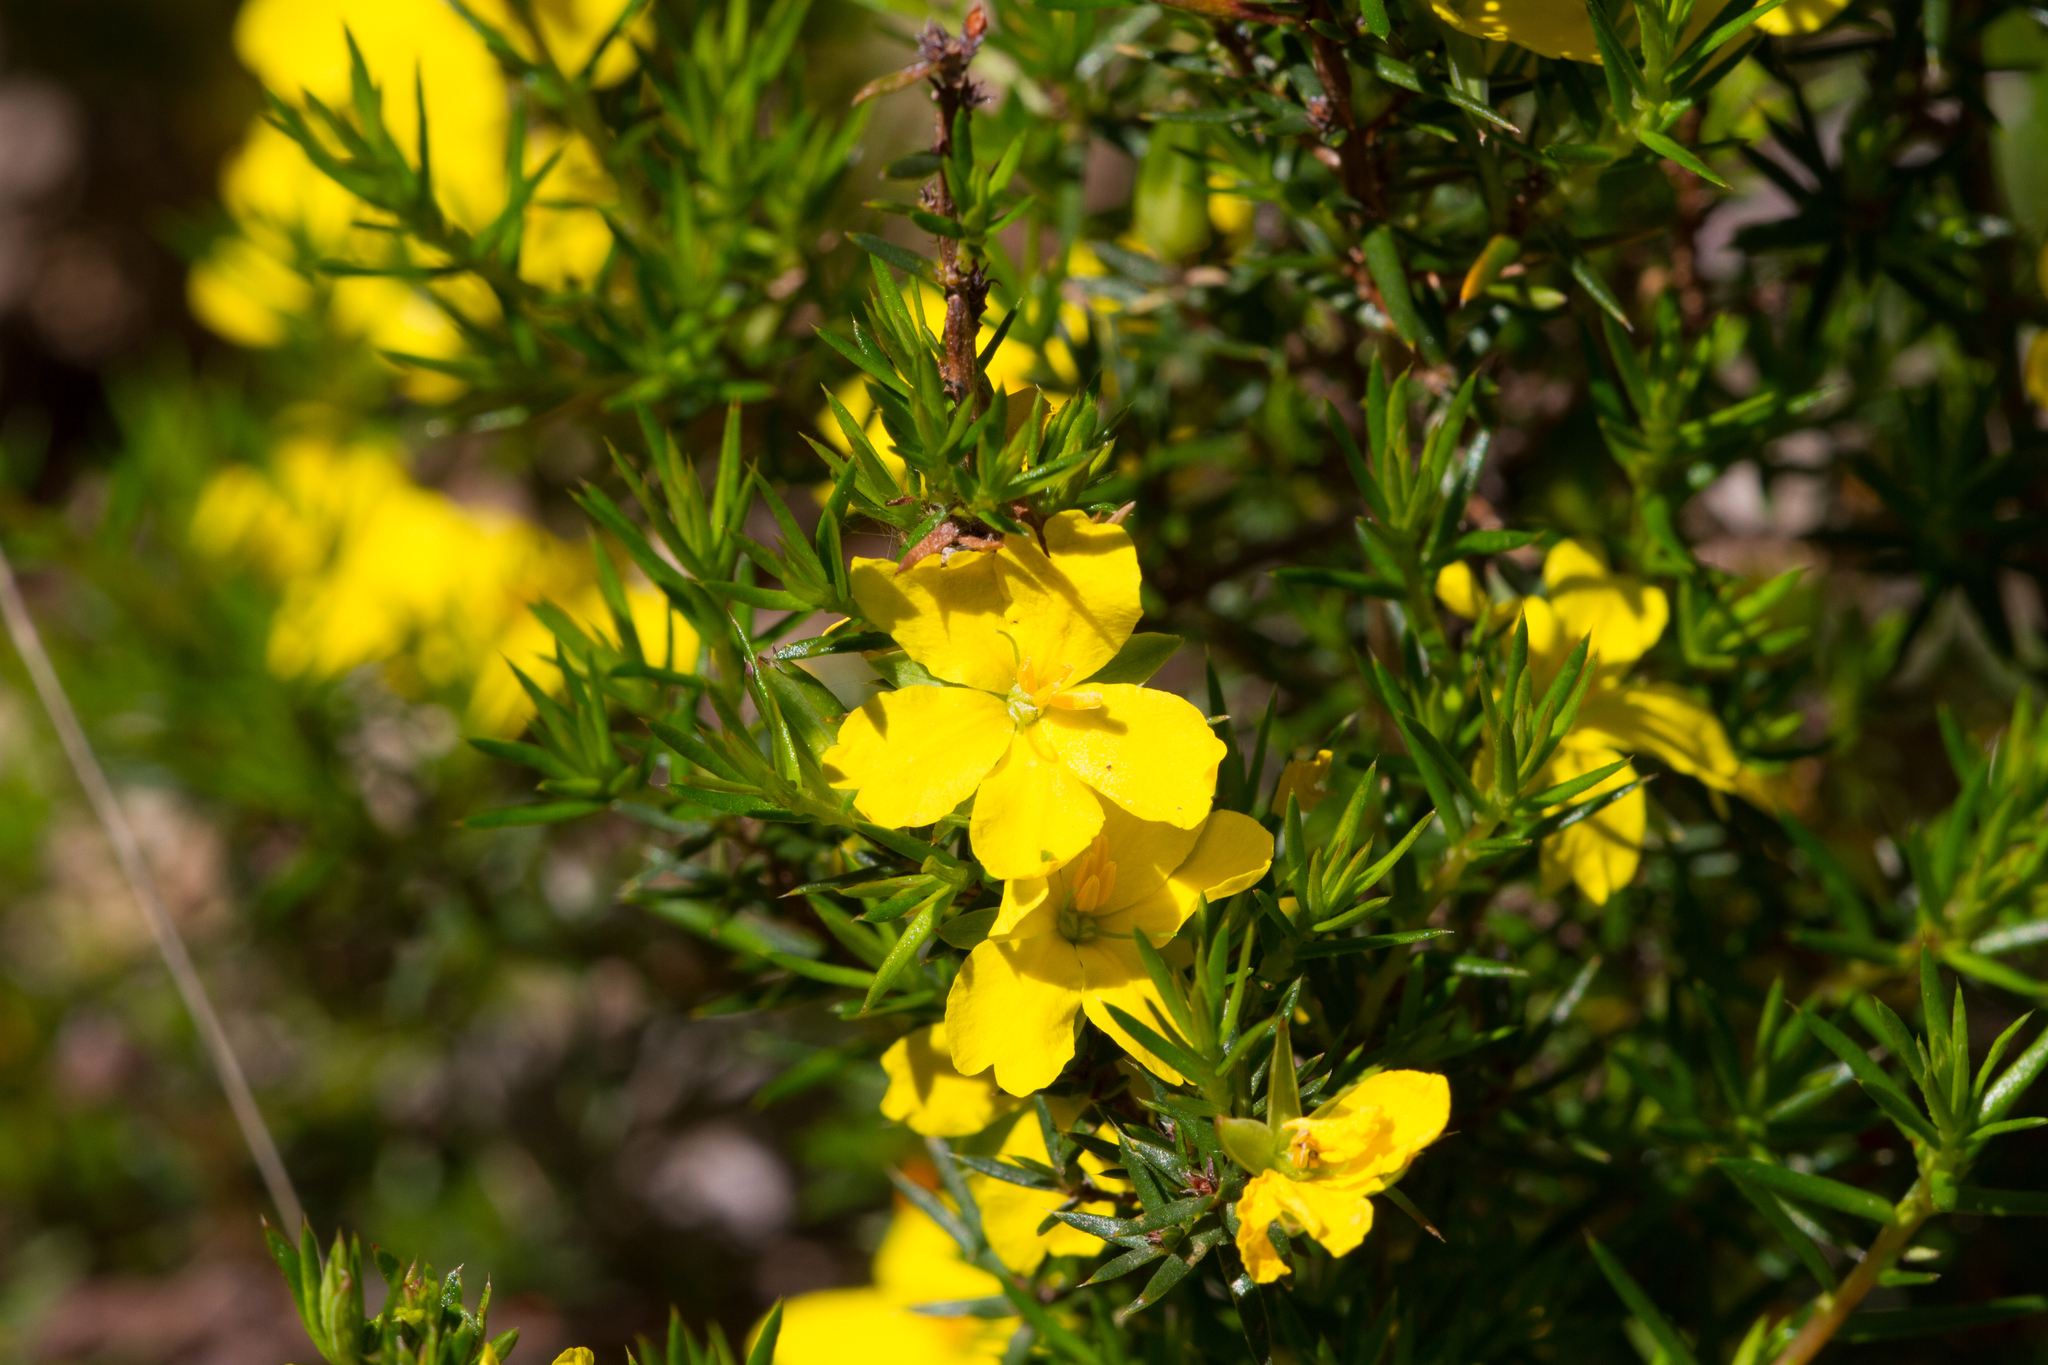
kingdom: Plantae
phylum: Tracheophyta
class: Magnoliopsida
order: Dilleniales
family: Dilleniaceae
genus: Hibbertia
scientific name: Hibbertia exutiacies
